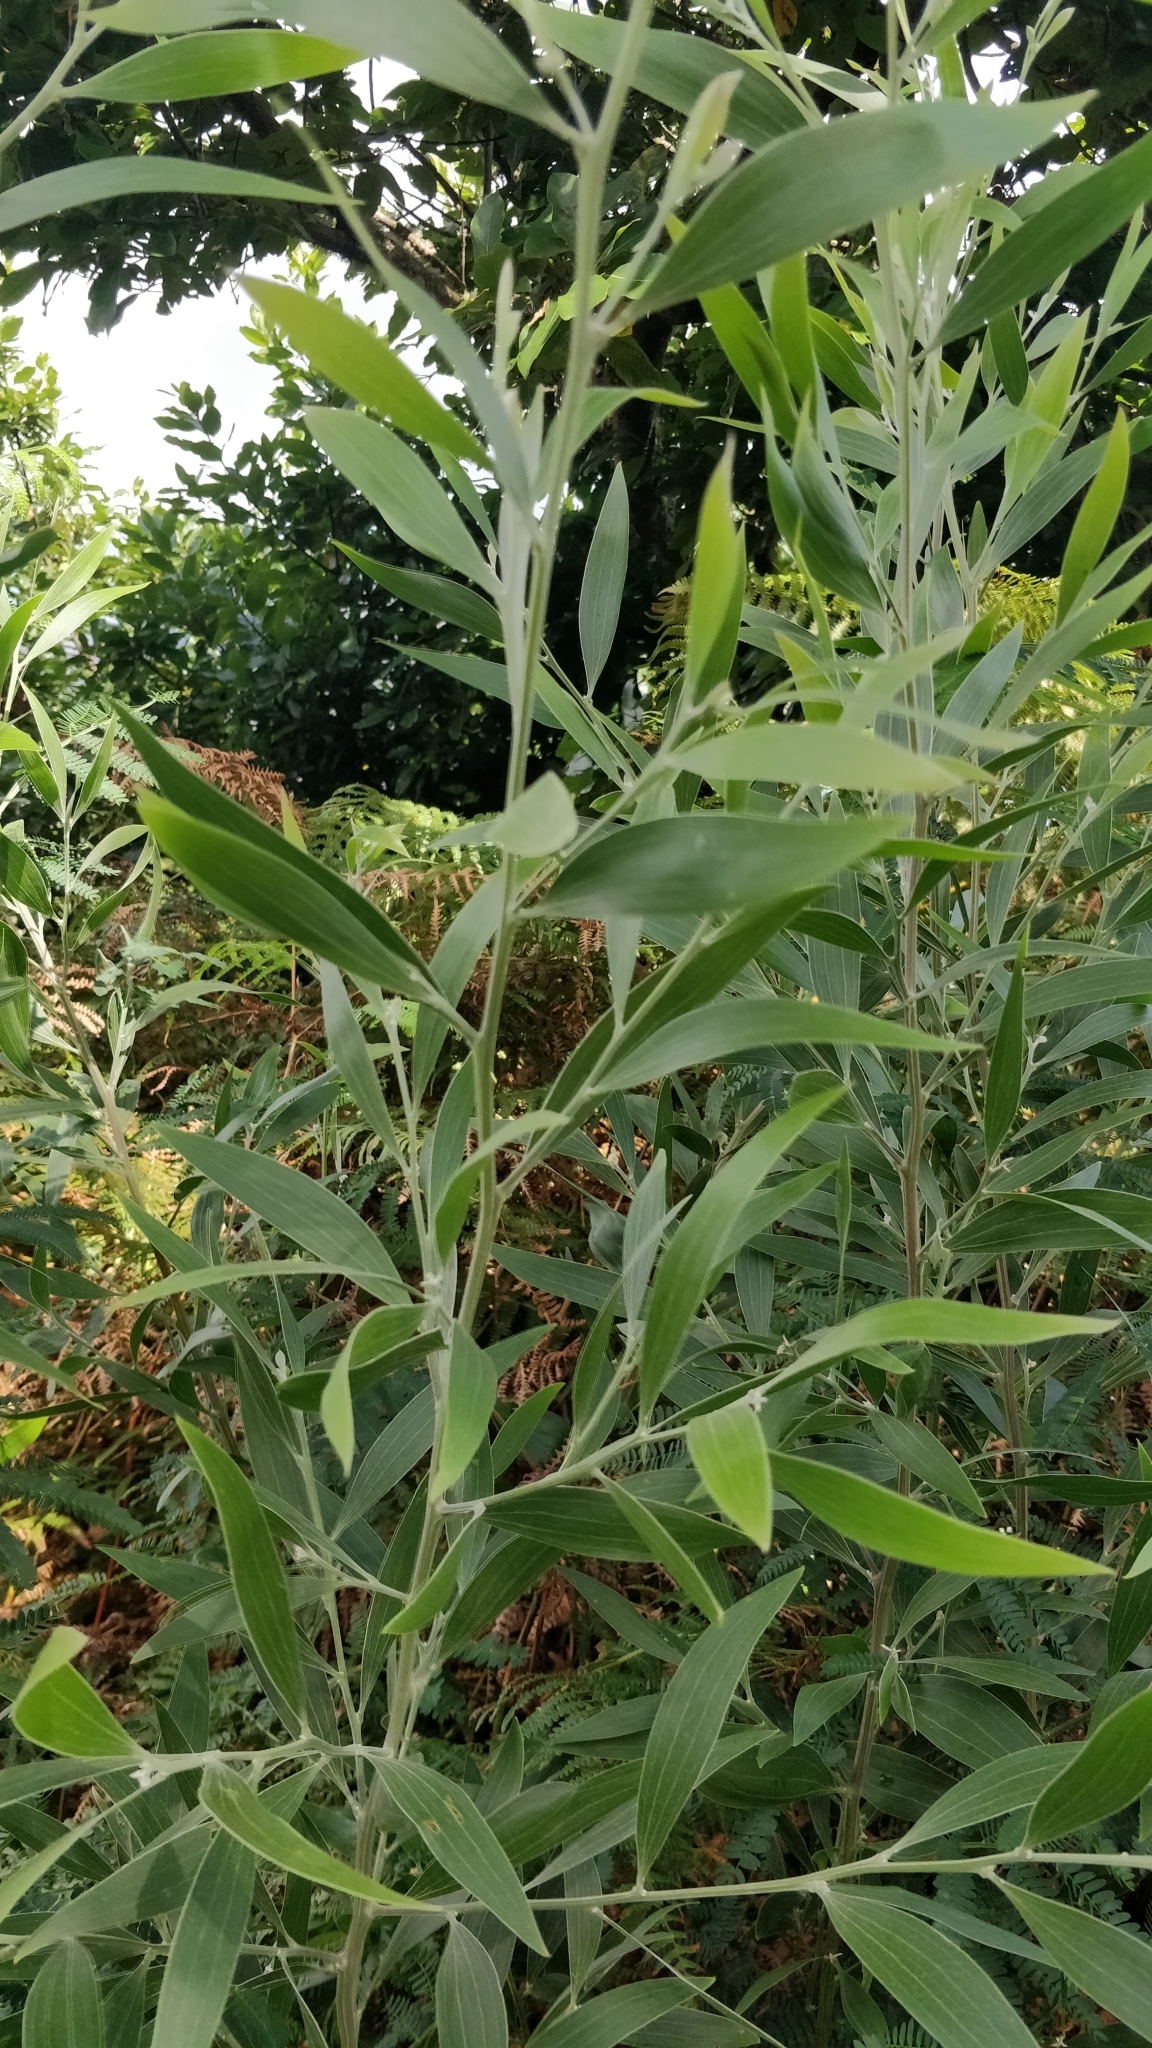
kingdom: Plantae
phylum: Tracheophyta
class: Magnoliopsida
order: Fabales
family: Fabaceae
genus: Acacia
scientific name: Acacia melanoxylon
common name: Blackwood
